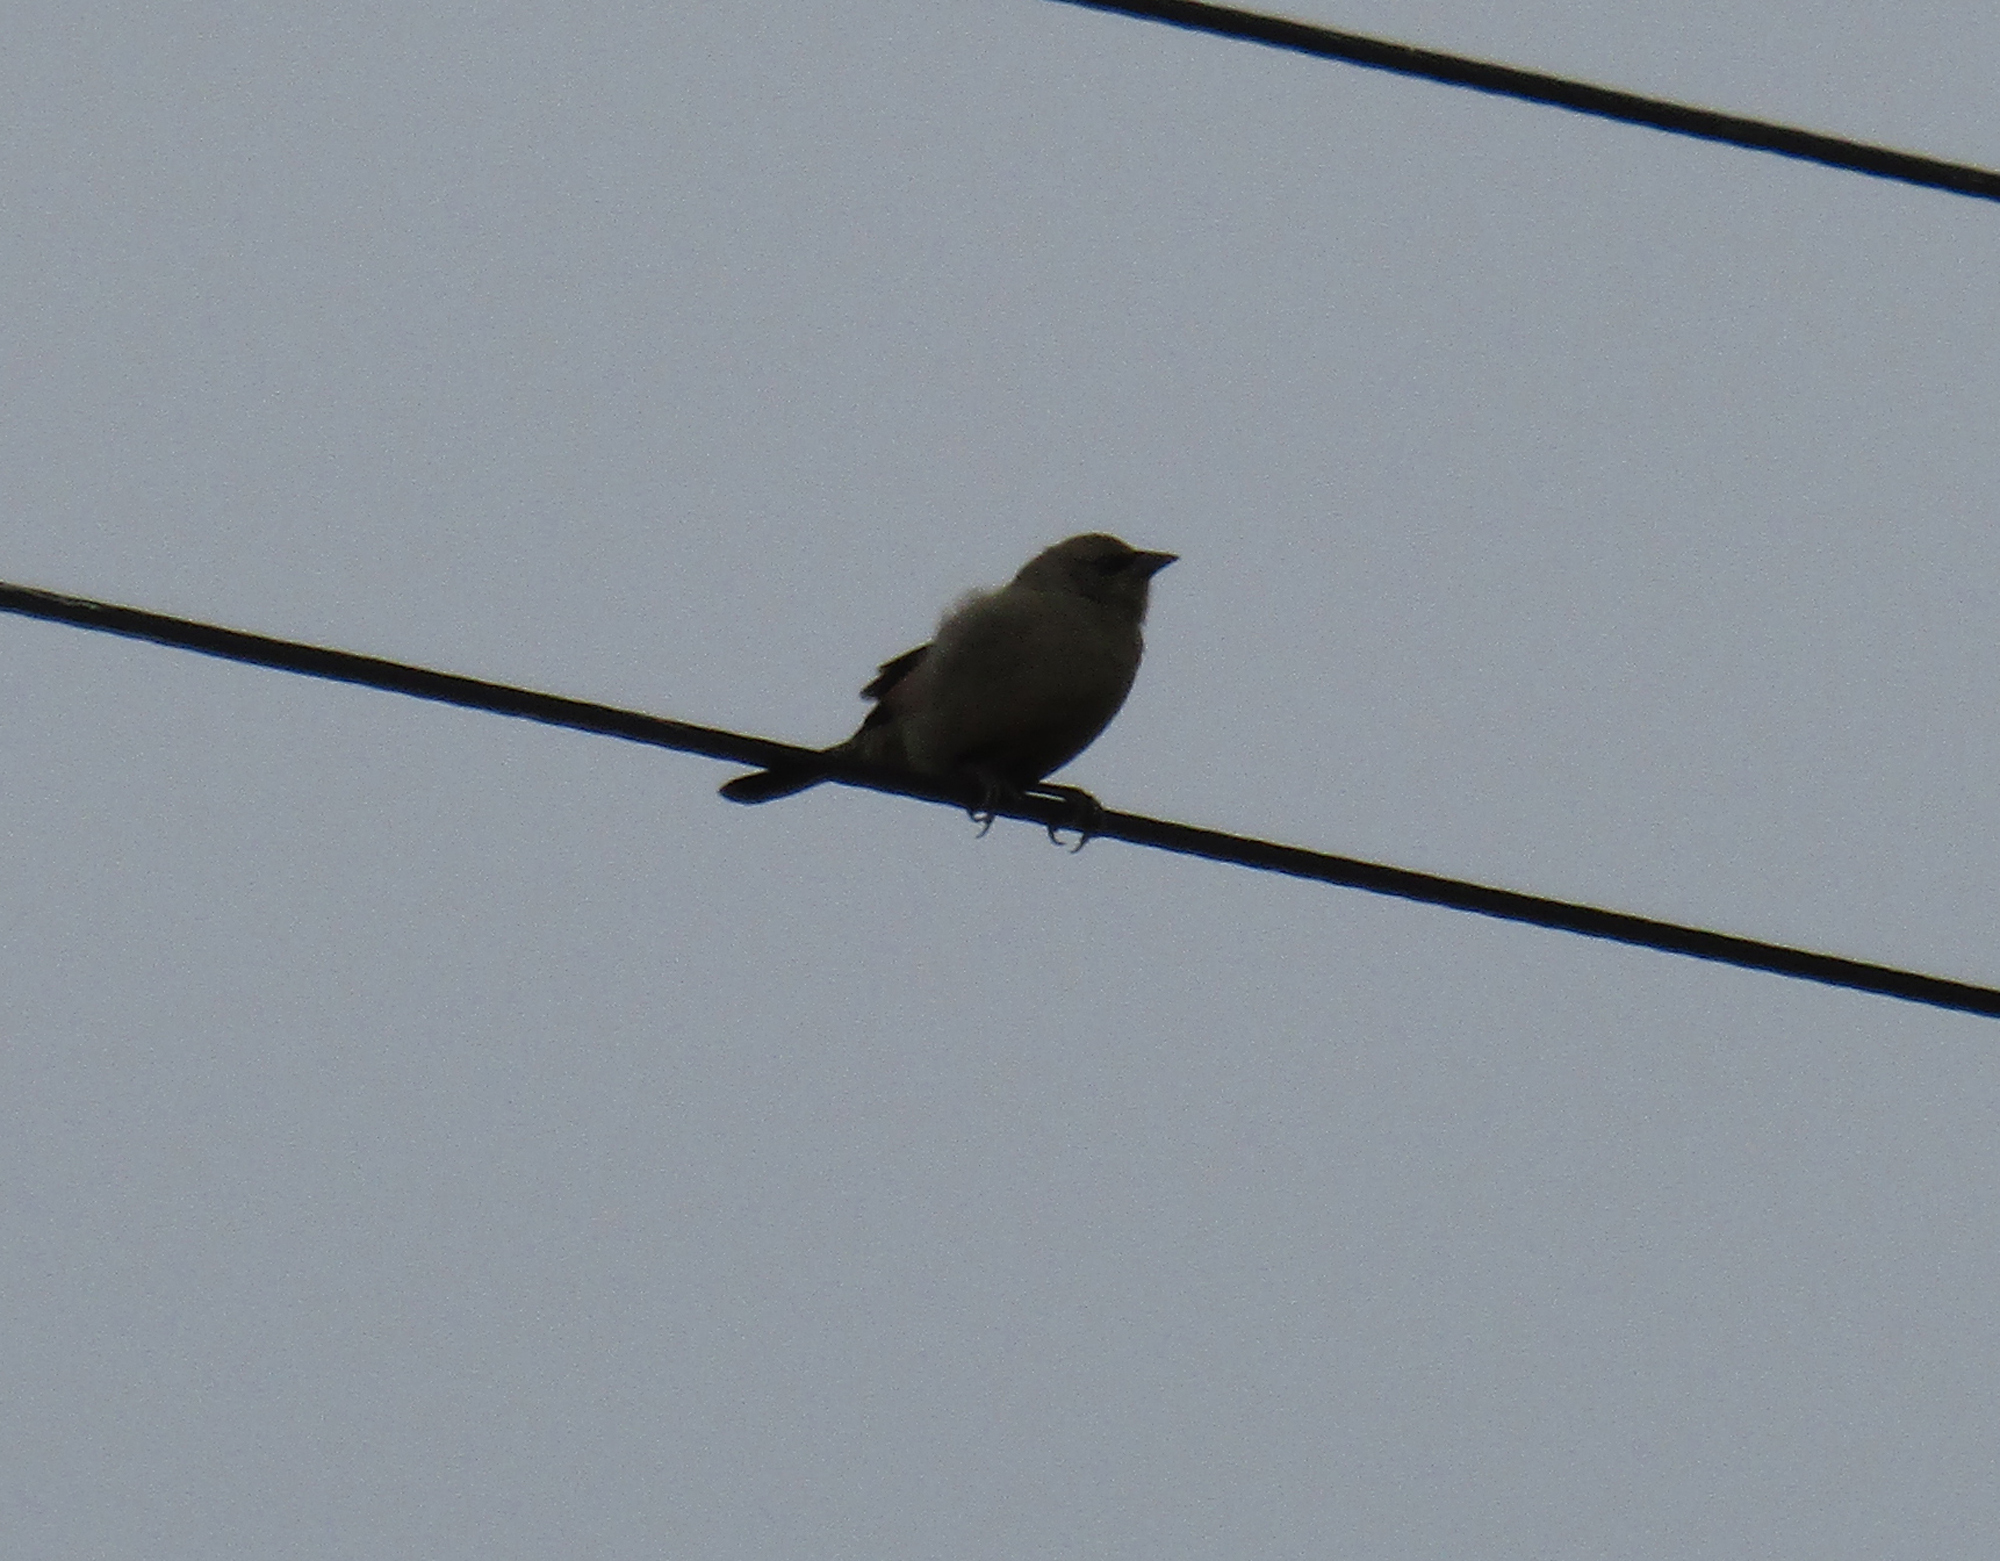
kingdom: Animalia
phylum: Chordata
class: Aves
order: Passeriformes
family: Icteridae
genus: Agelaioides
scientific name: Agelaioides badius
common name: Baywing
